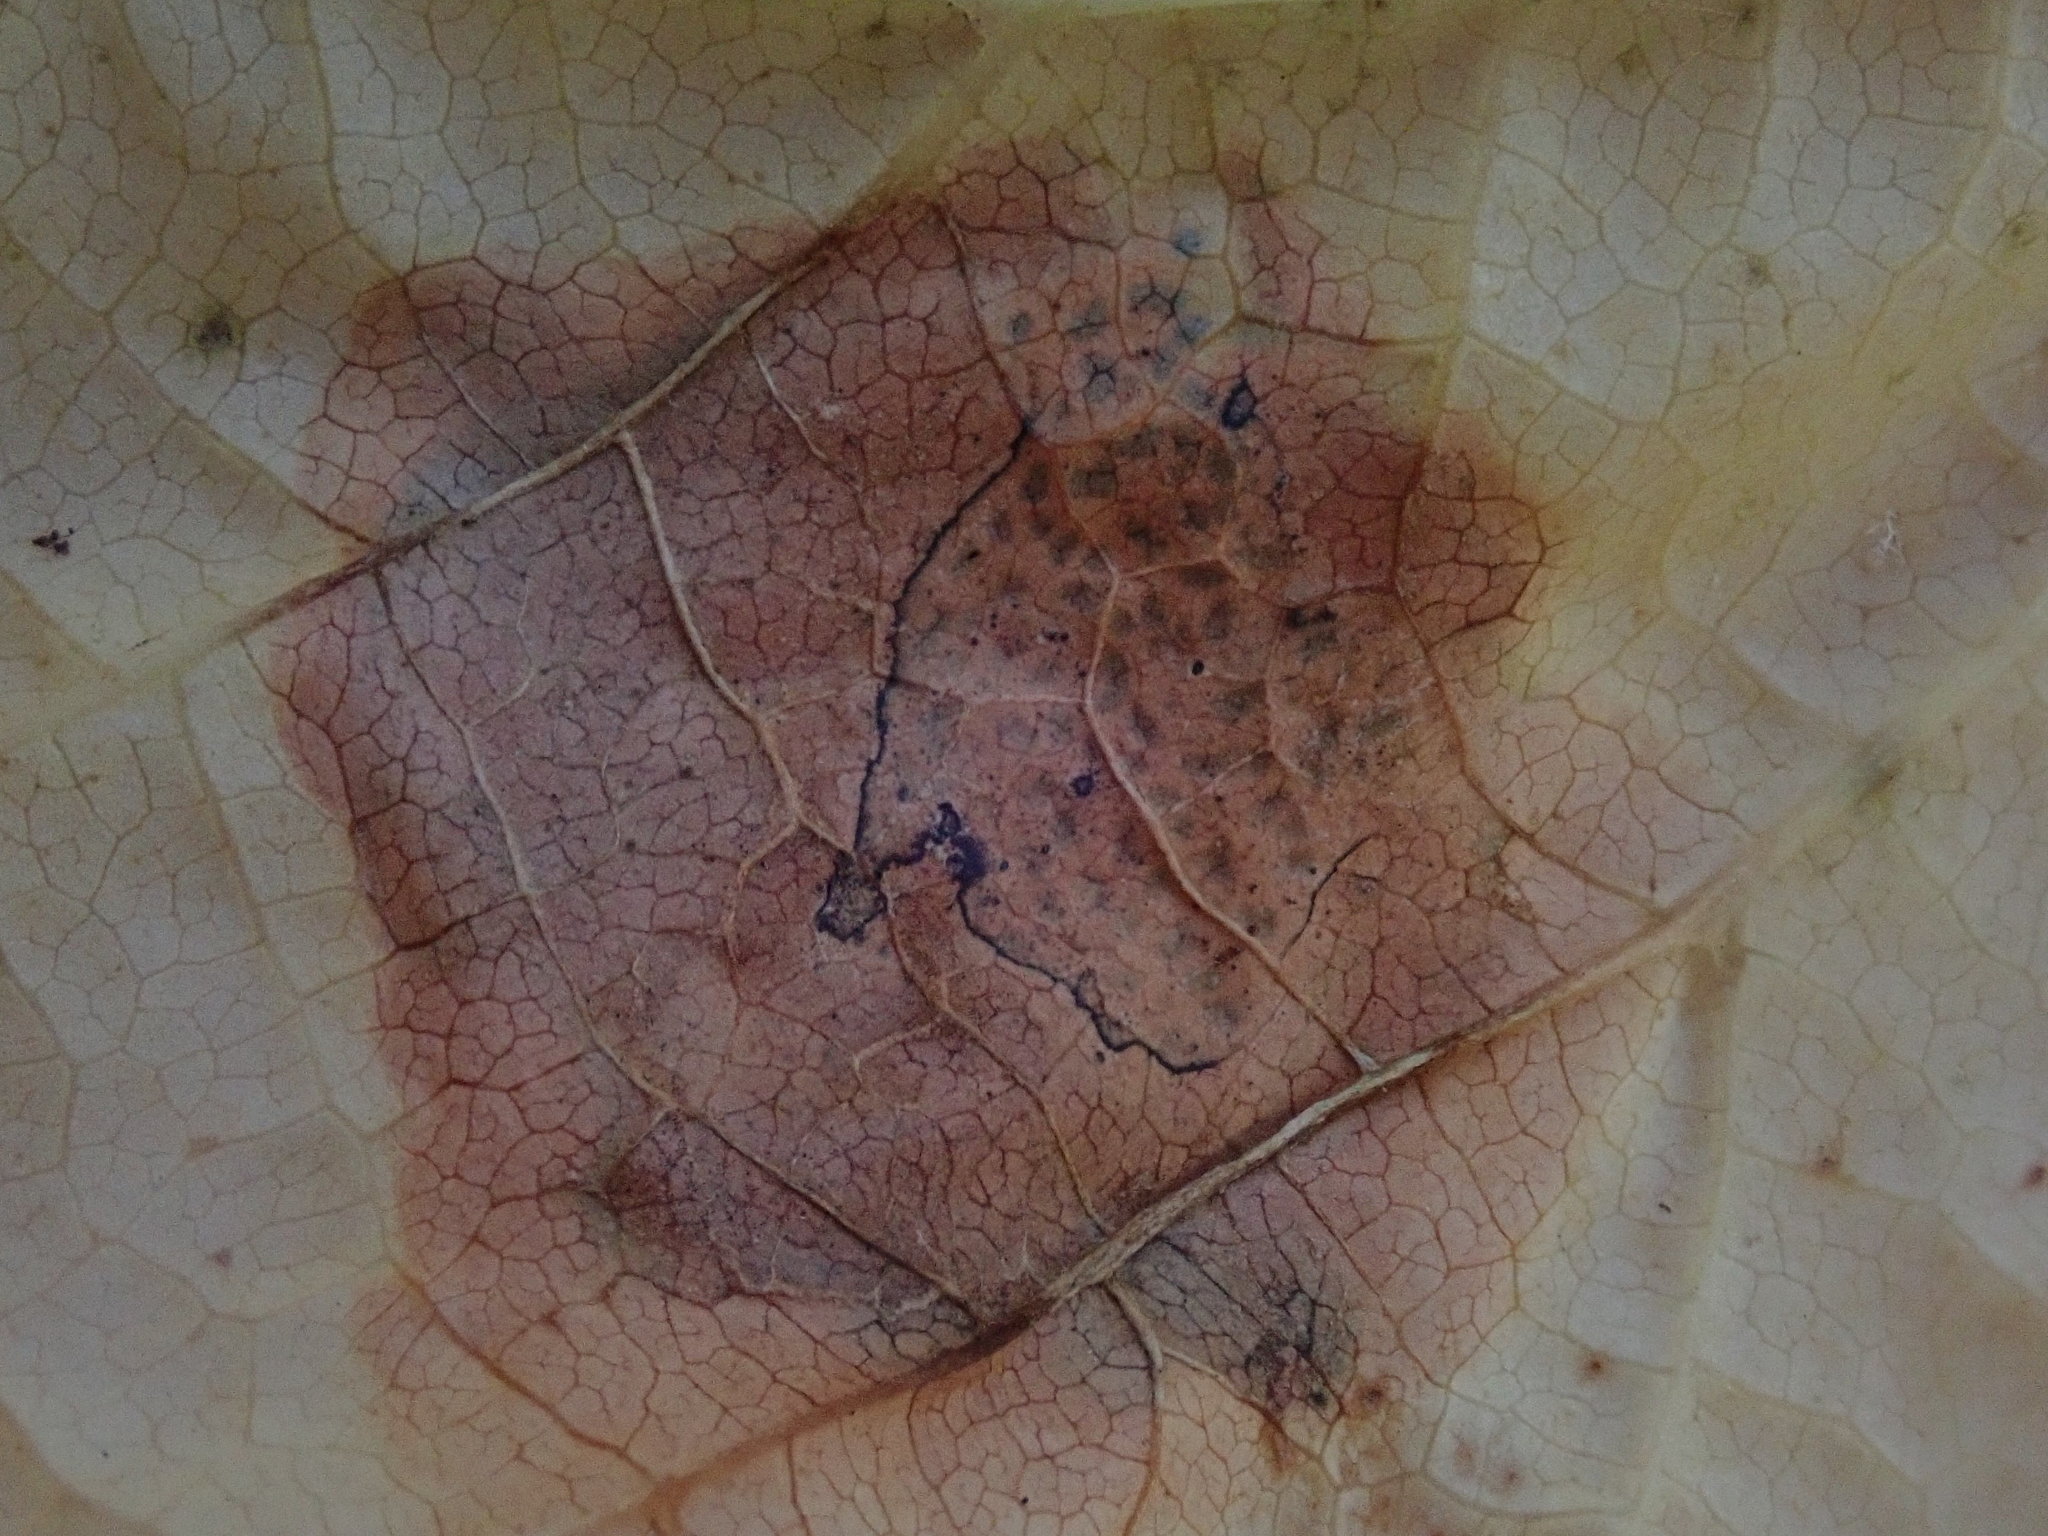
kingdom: Fungi
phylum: Ascomycota
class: Leotiomycetes
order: Rhytismatales
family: Rhytismataceae
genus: Rhytisma
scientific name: Rhytisma punctatum
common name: Speckled tar spot
